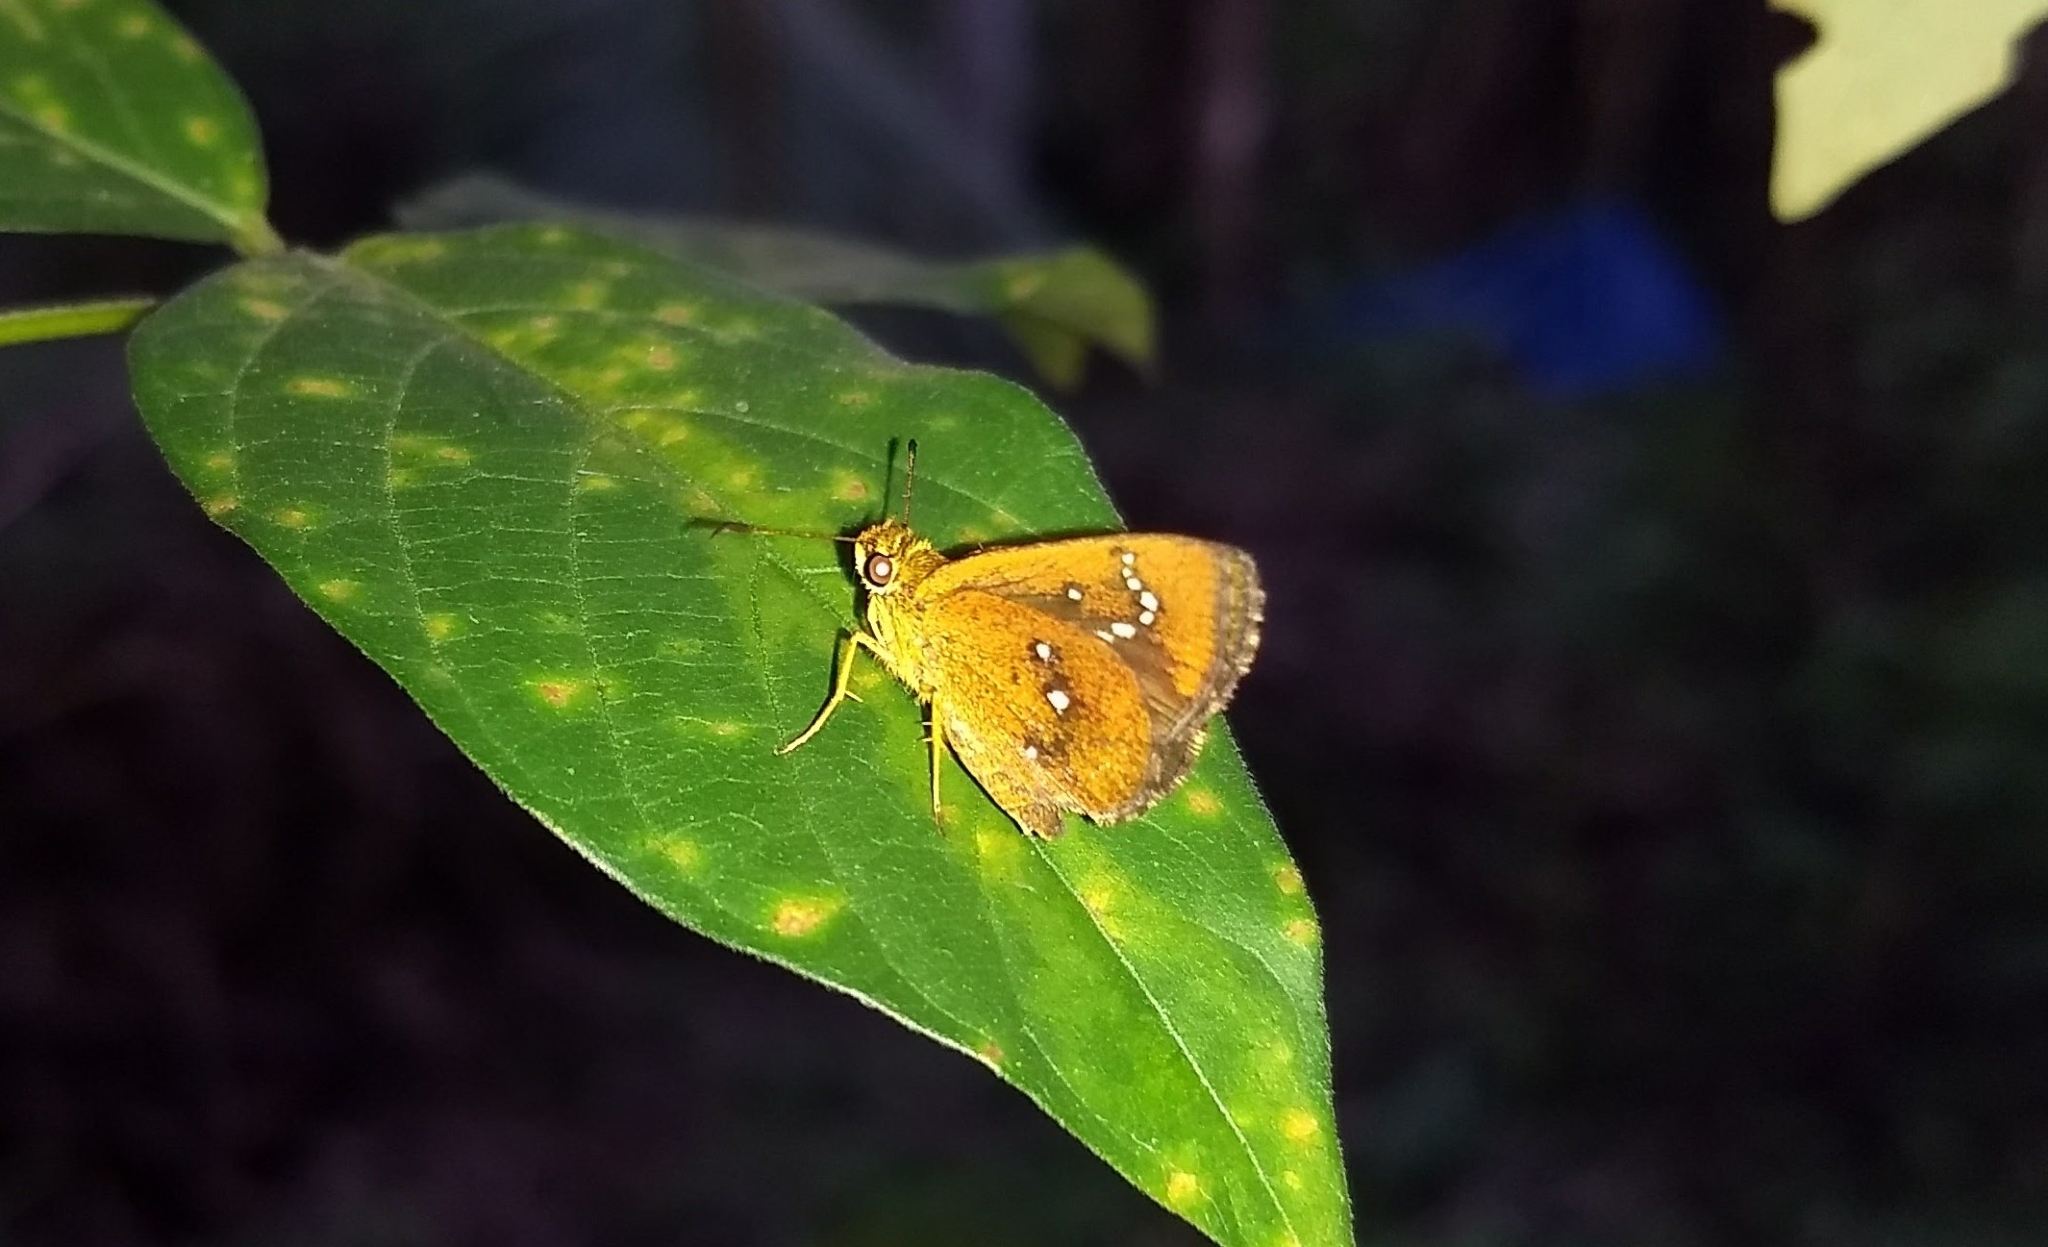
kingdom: Animalia
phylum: Arthropoda
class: Insecta
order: Lepidoptera
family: Hesperiidae
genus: Iambrix
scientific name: Iambrix salsala
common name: Chestnut bob
